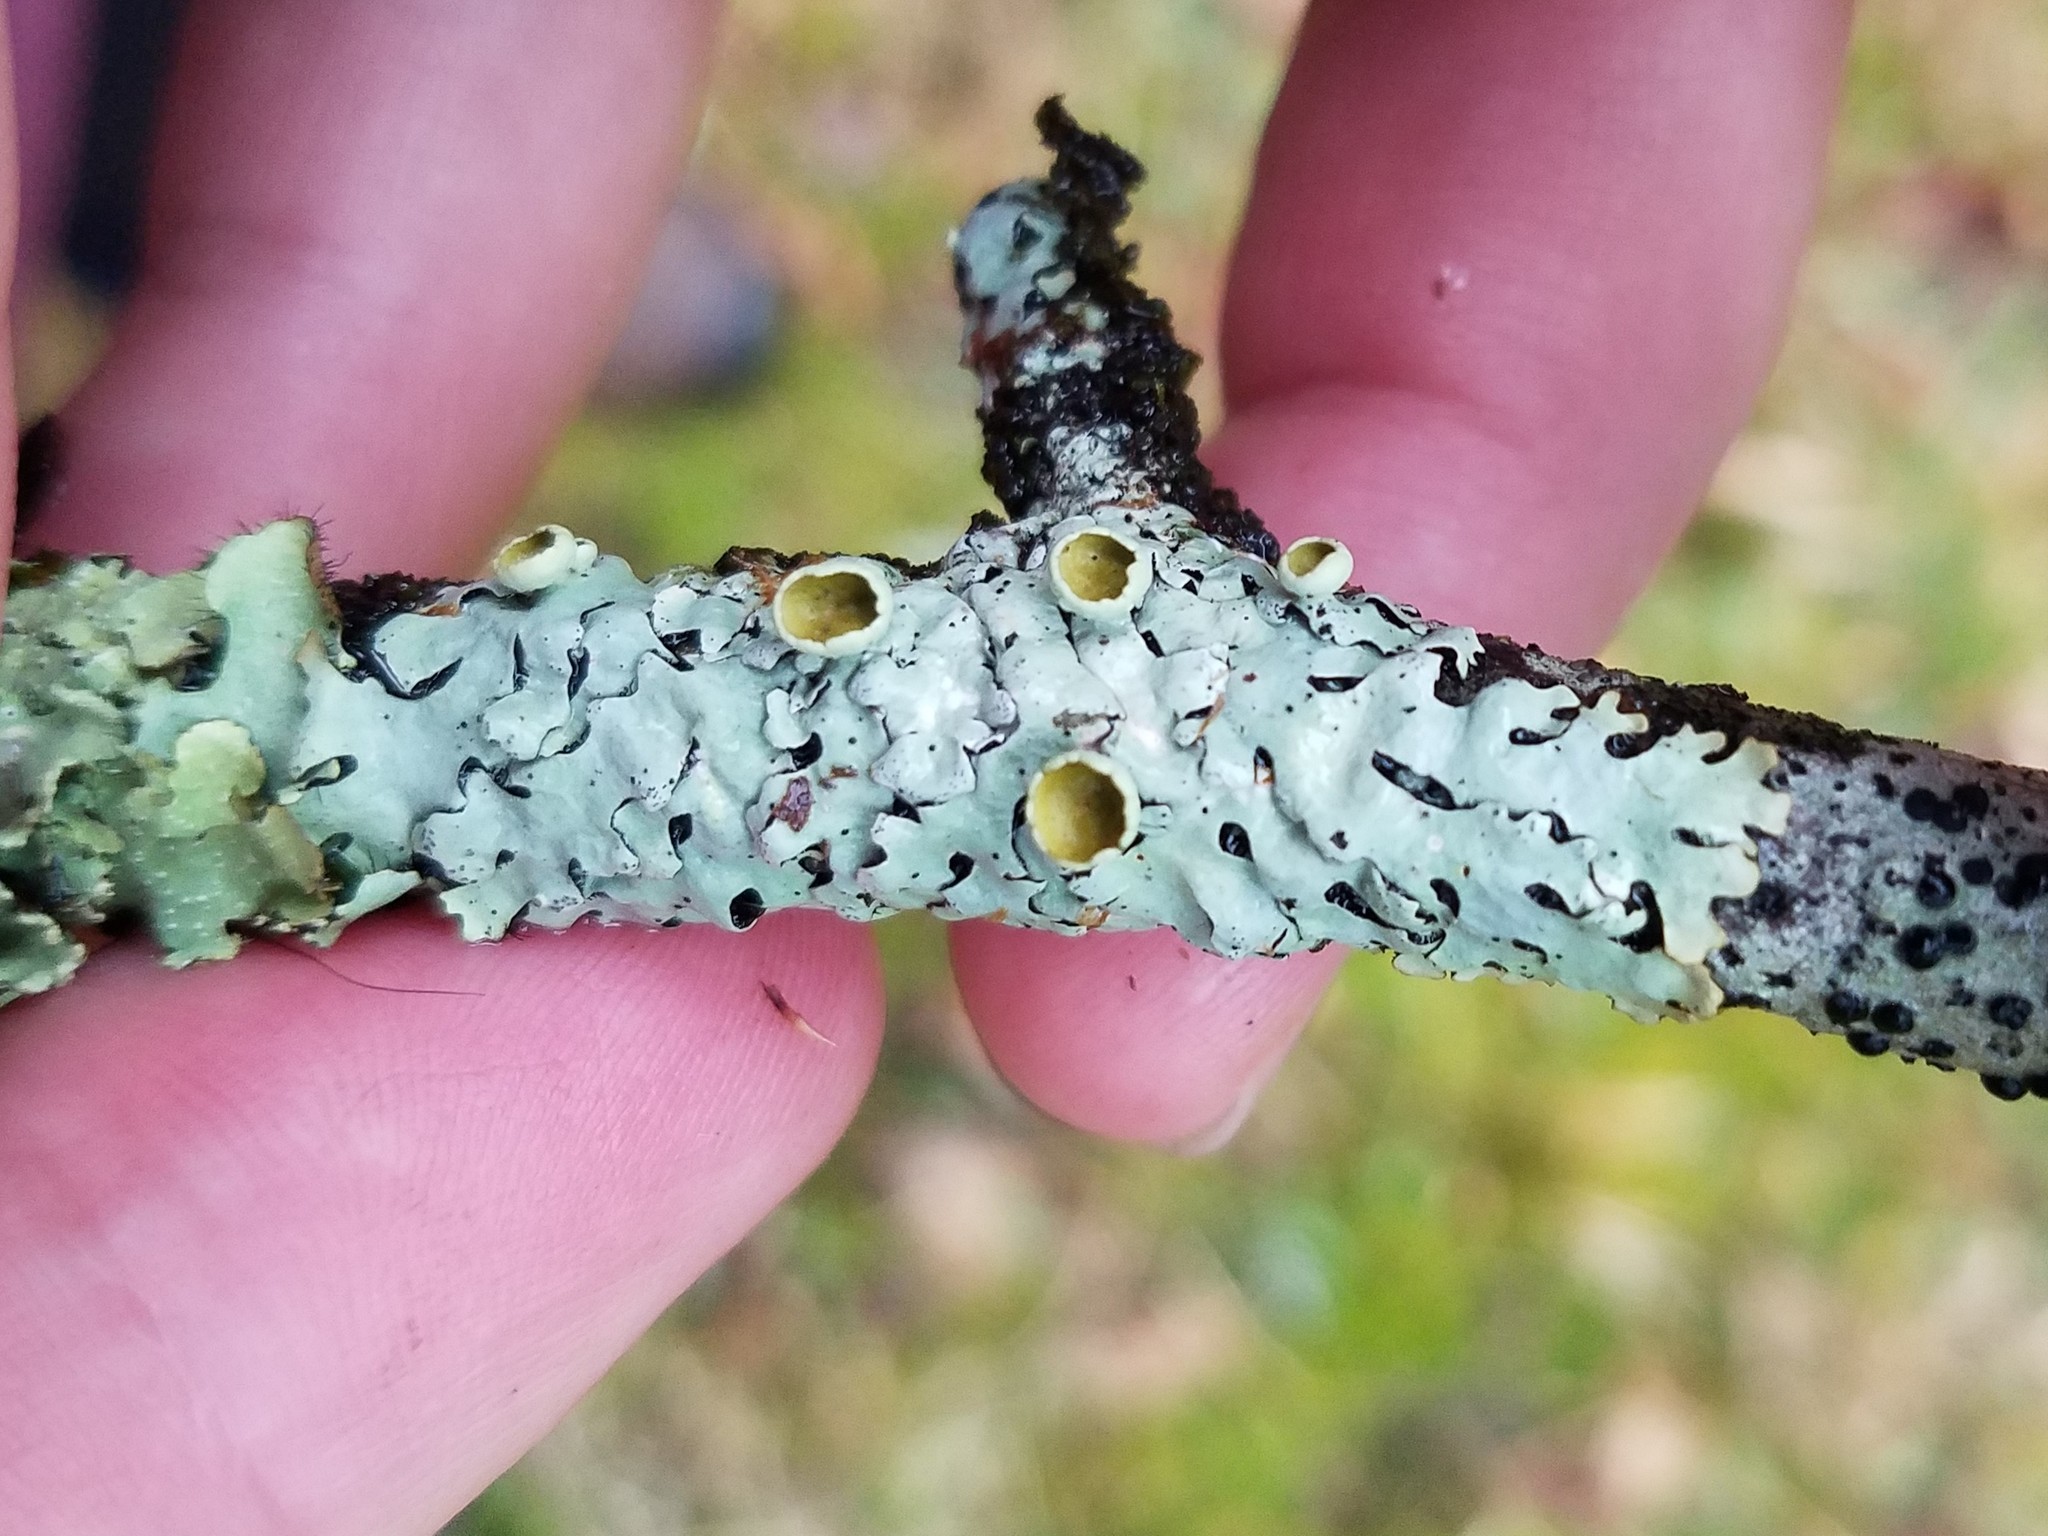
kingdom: Fungi
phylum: Ascomycota
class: Lecanoromycetes
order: Lecanorales
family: Parmeliaceae
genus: Hypotrachyna
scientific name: Hypotrachyna livida
